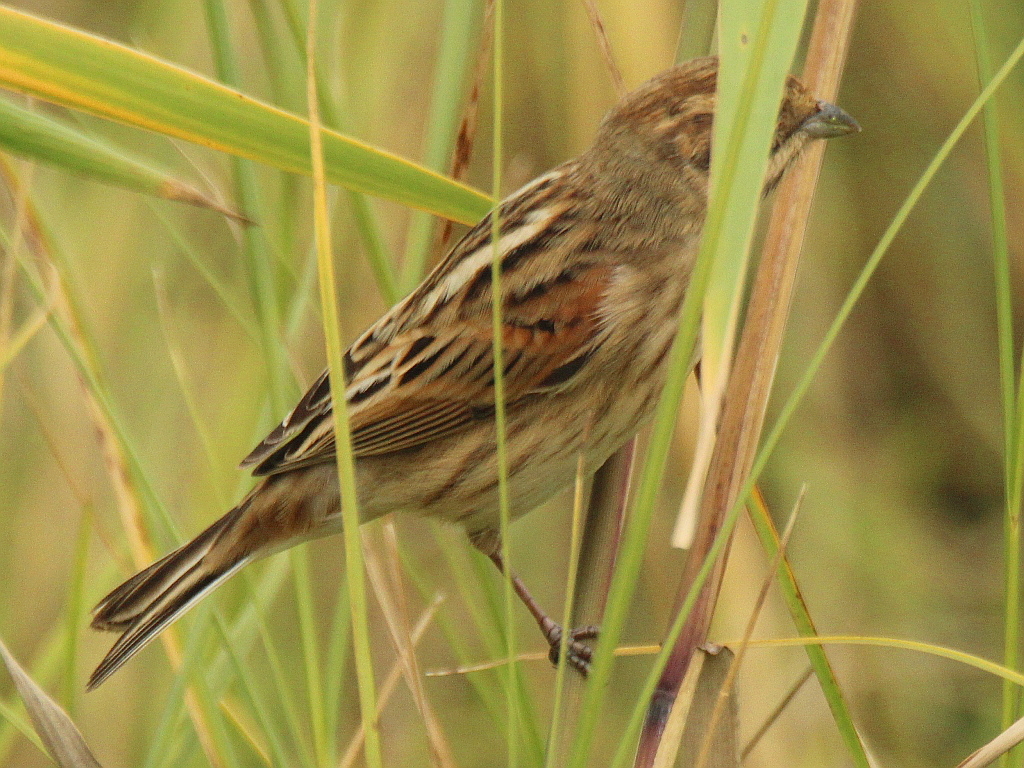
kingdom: Animalia
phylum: Chordata
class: Aves
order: Passeriformes
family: Emberizidae
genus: Emberiza
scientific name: Emberiza schoeniclus
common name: Reed bunting
